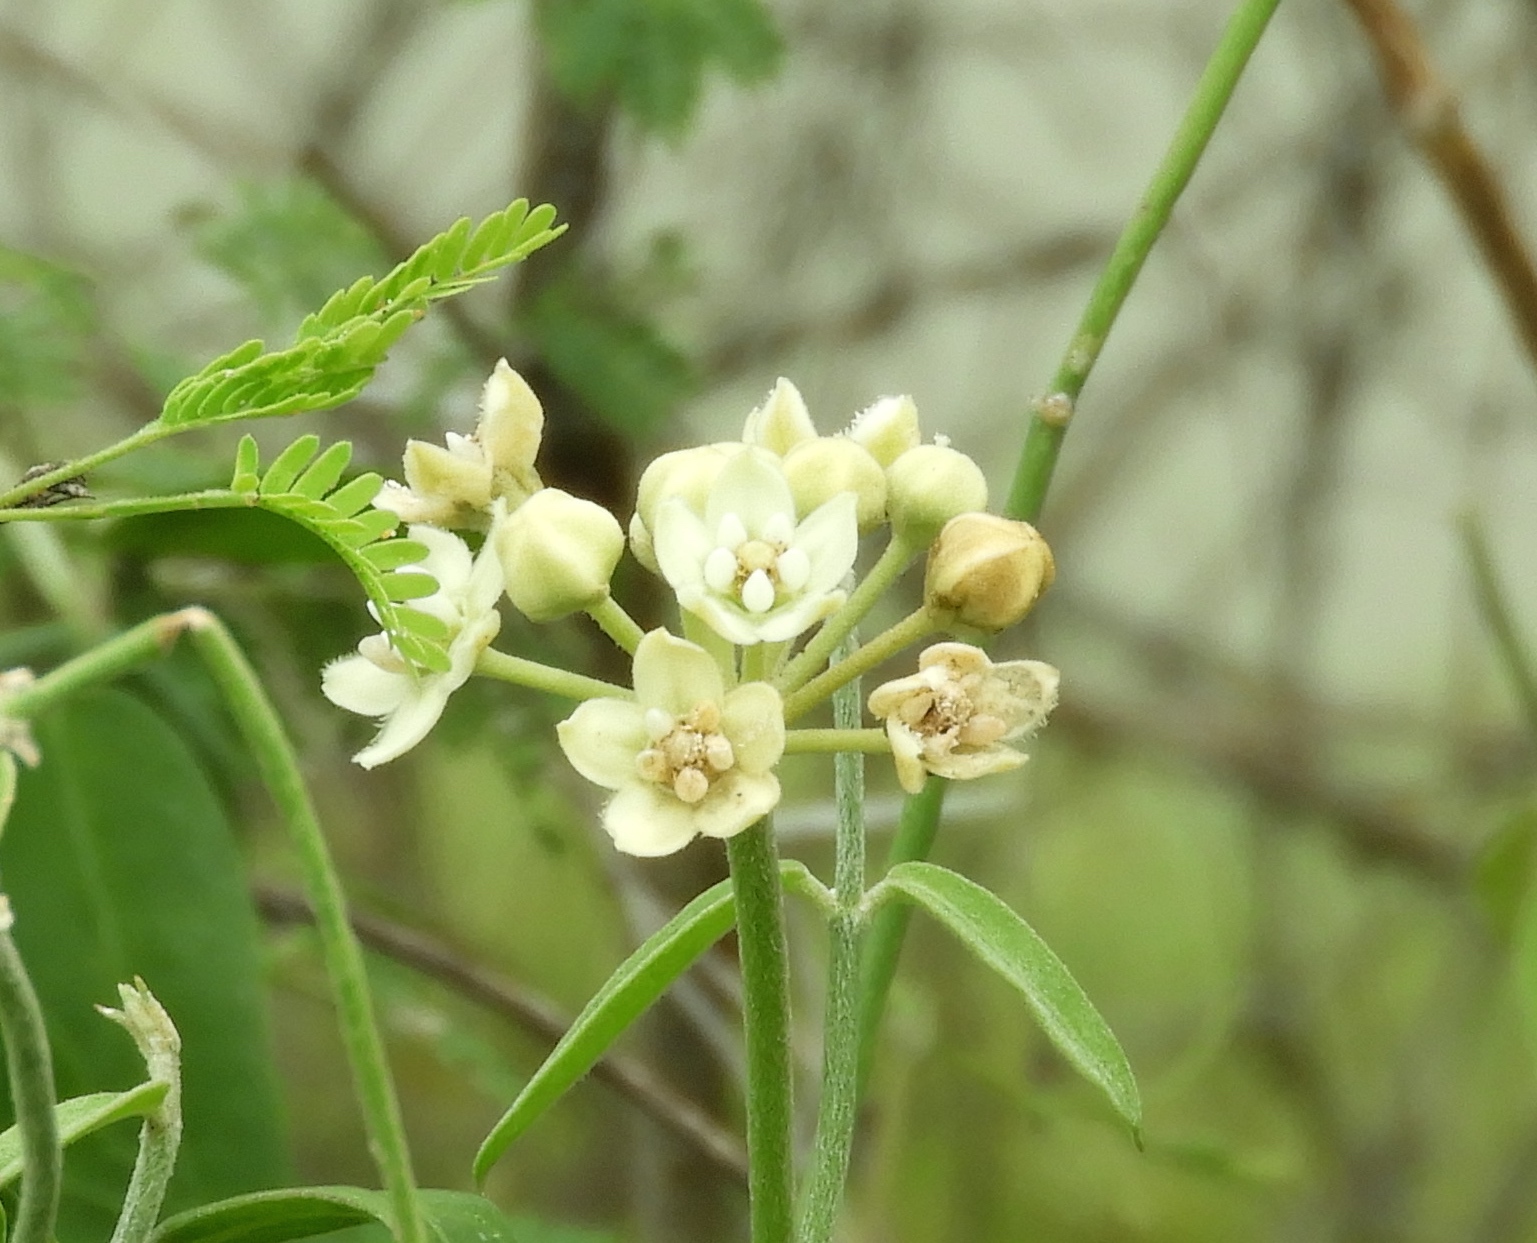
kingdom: Plantae
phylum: Tracheophyta
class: Magnoliopsida
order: Gentianales
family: Apocynaceae
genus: Funastrum
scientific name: Funastrum clausum
